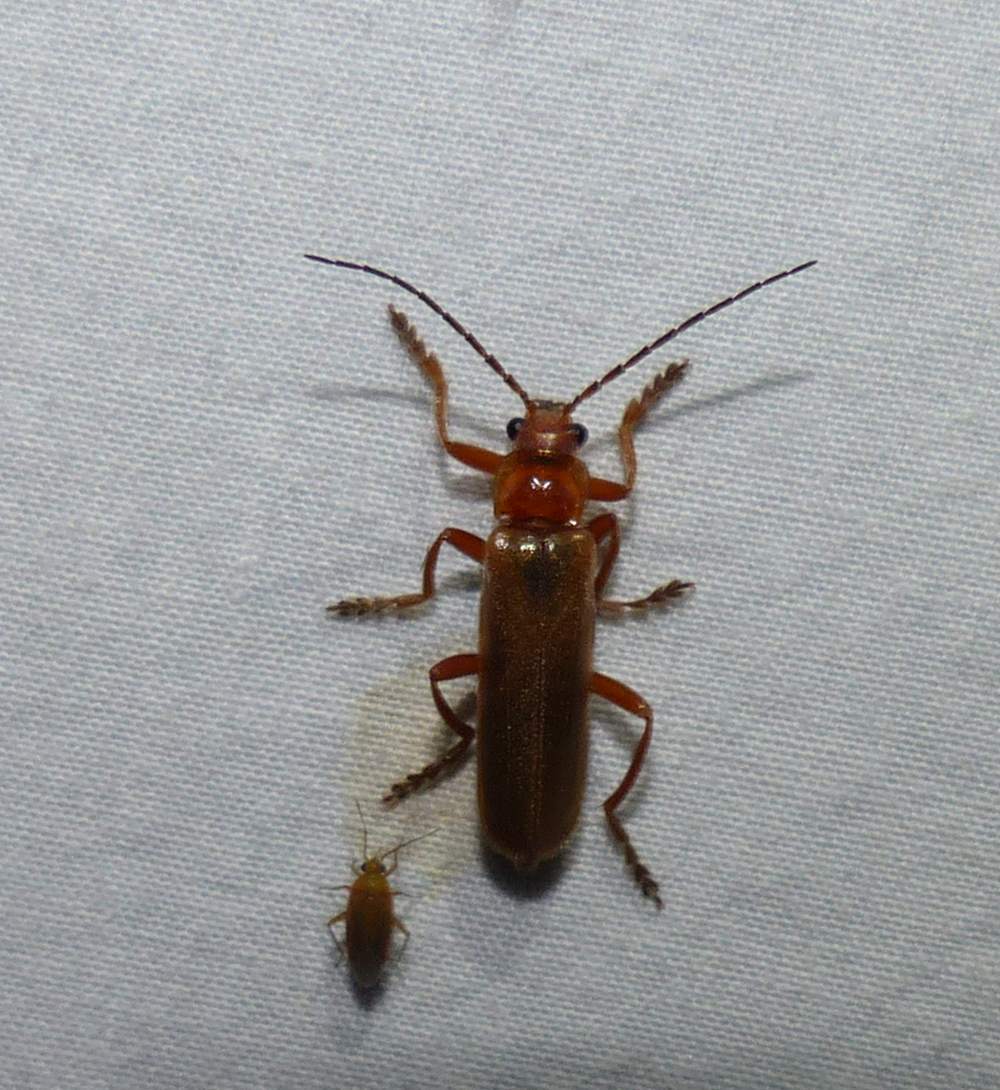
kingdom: Animalia
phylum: Arthropoda
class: Insecta
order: Coleoptera
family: Cantharidae
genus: Cantharis
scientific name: Cantharis rufa
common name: Red-spotted soldier beetle
